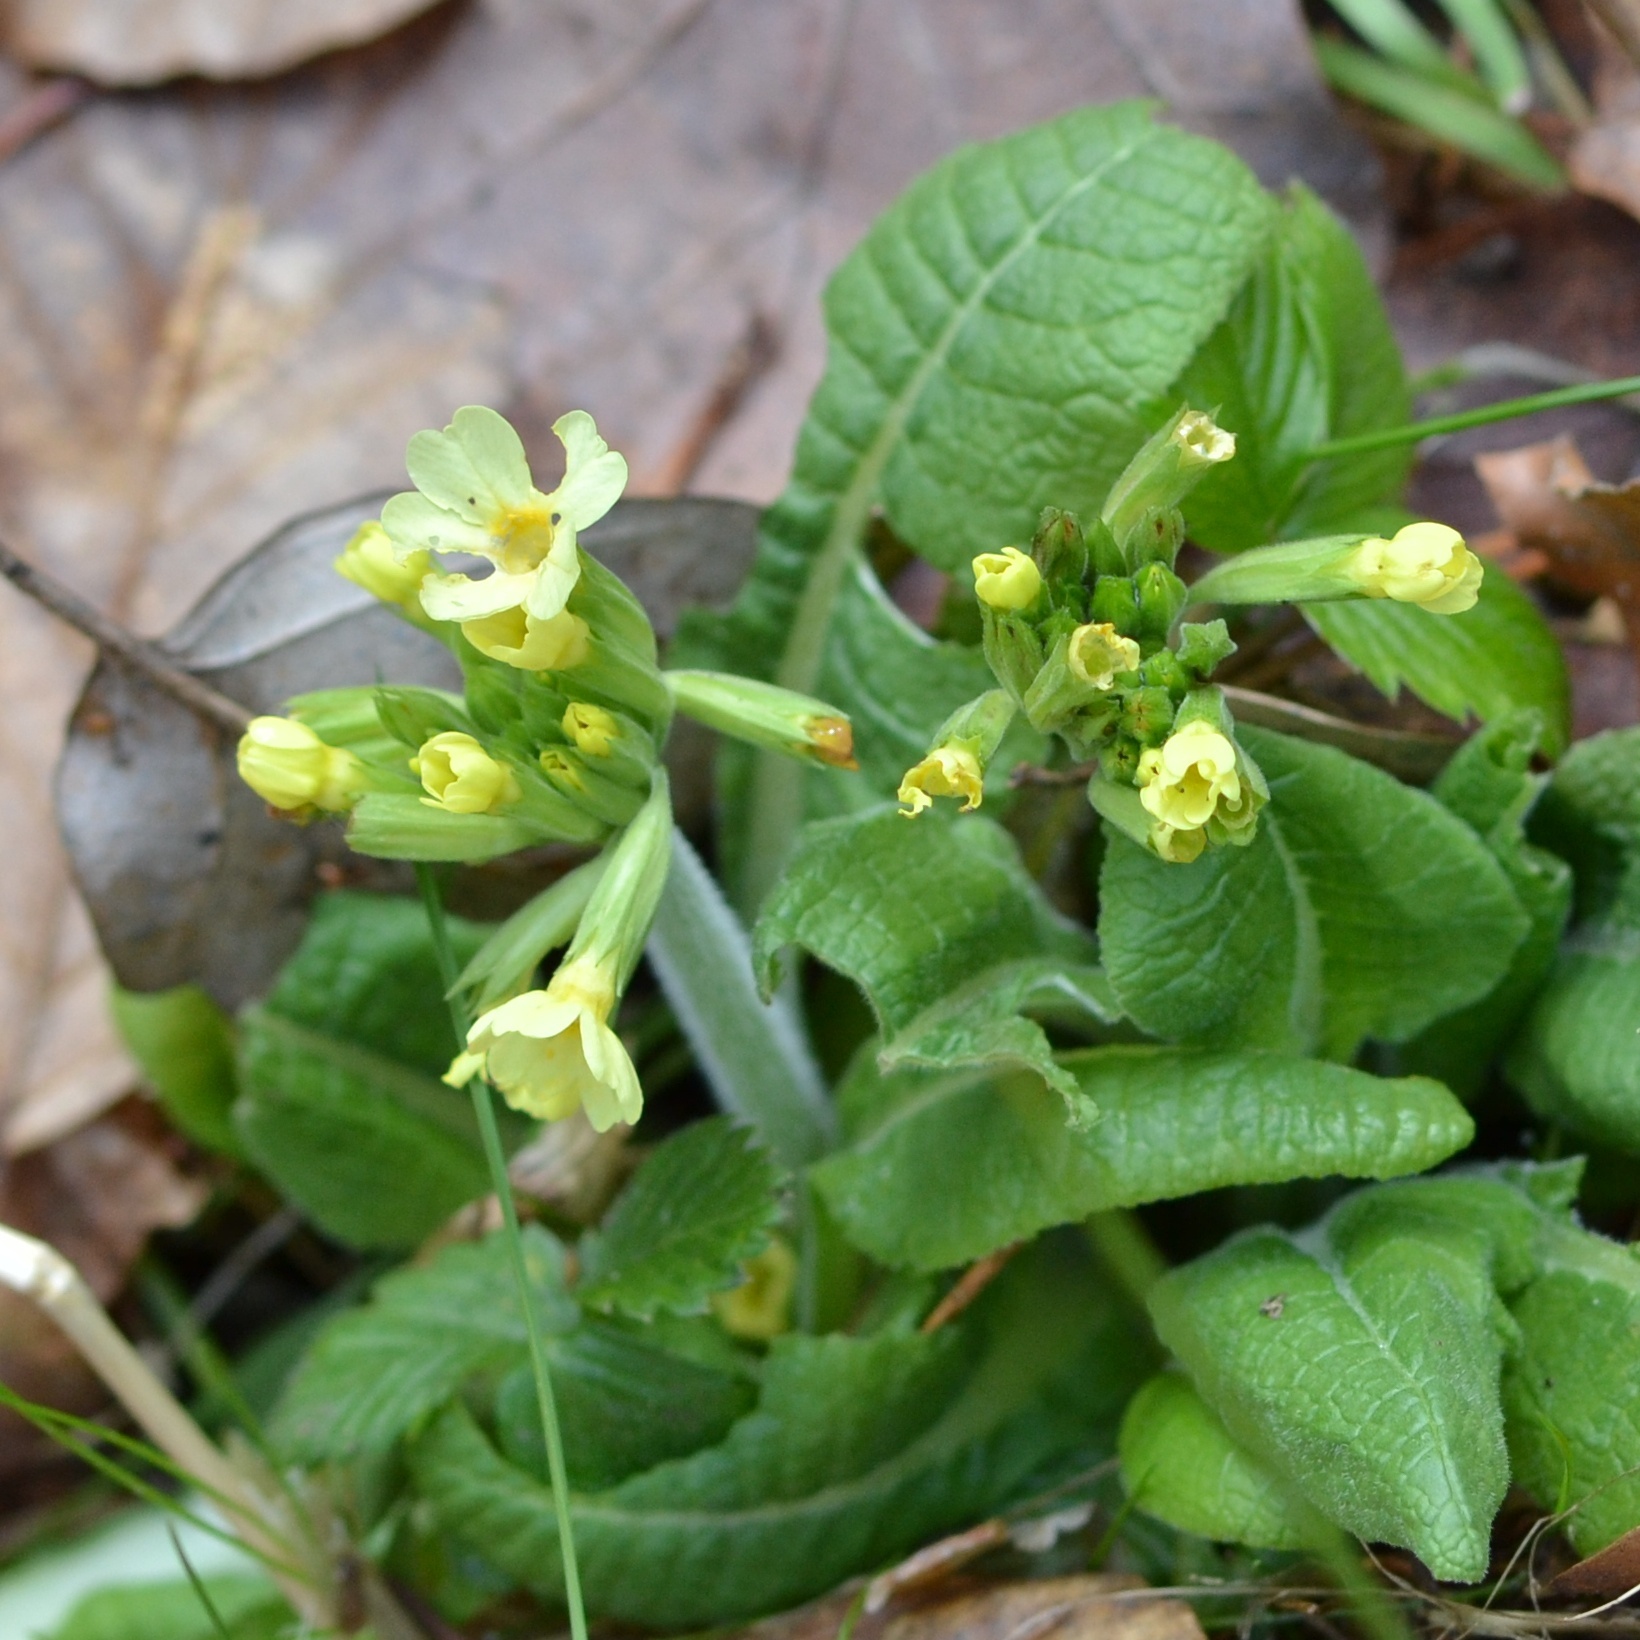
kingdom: Plantae
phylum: Tracheophyta
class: Magnoliopsida
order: Ericales
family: Primulaceae
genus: Primula
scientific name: Primula elatior
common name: Oxlip
